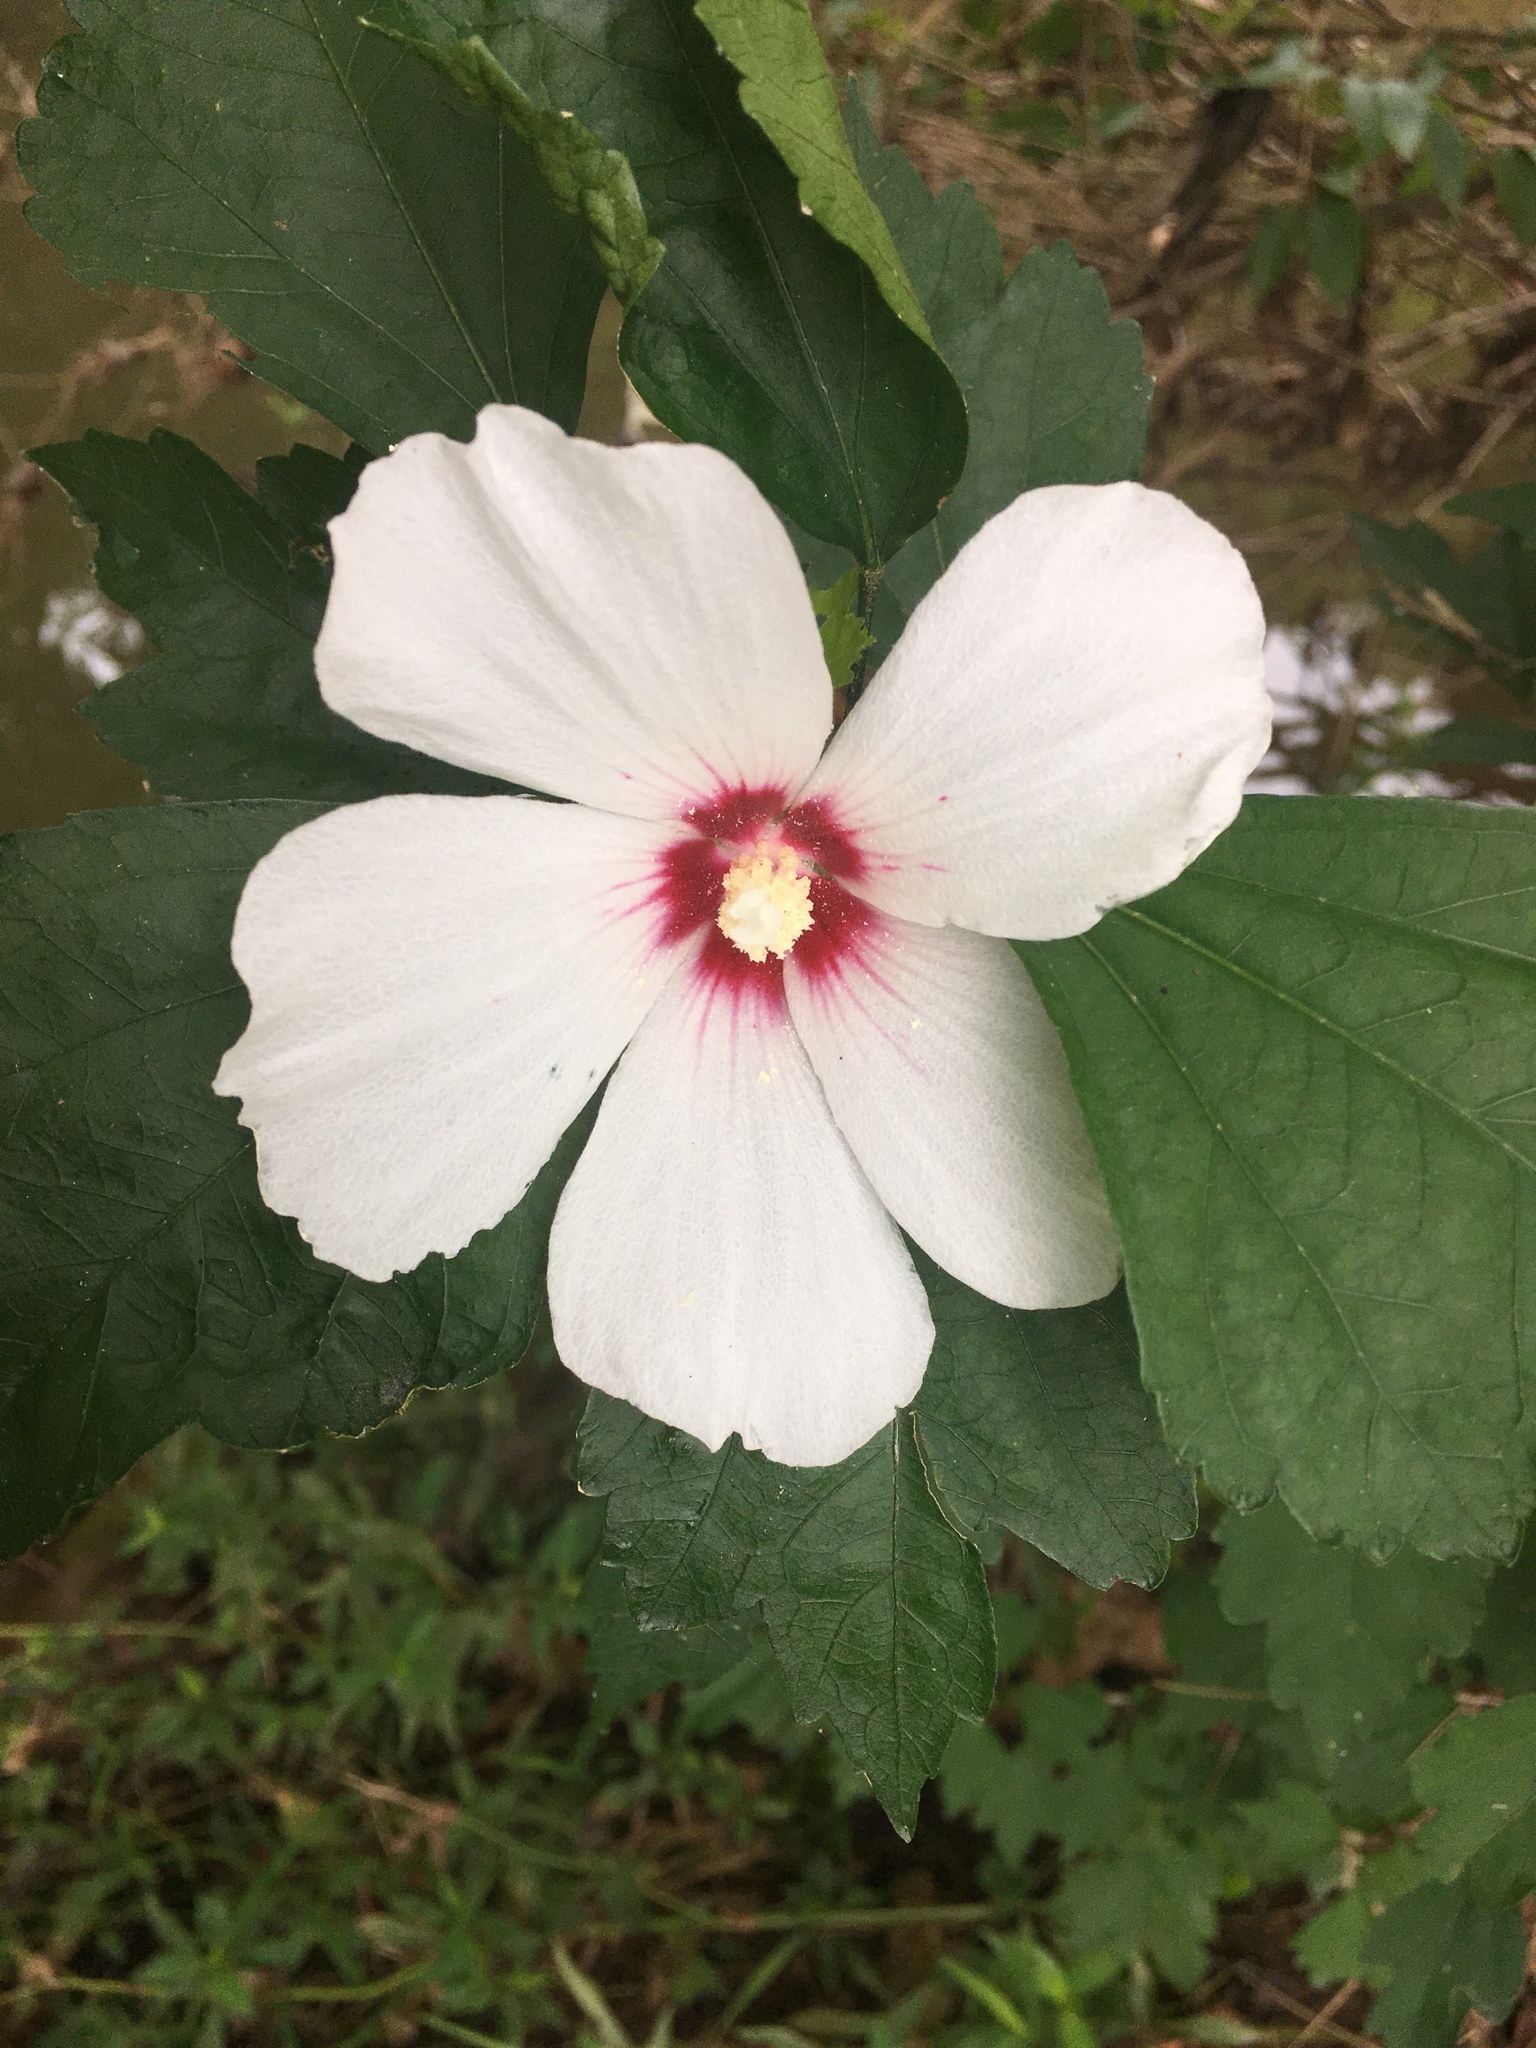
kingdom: Plantae
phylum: Tracheophyta
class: Magnoliopsida
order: Malvales
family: Malvaceae
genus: Hibiscus
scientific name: Hibiscus syriacus
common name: Syrian ketmia
